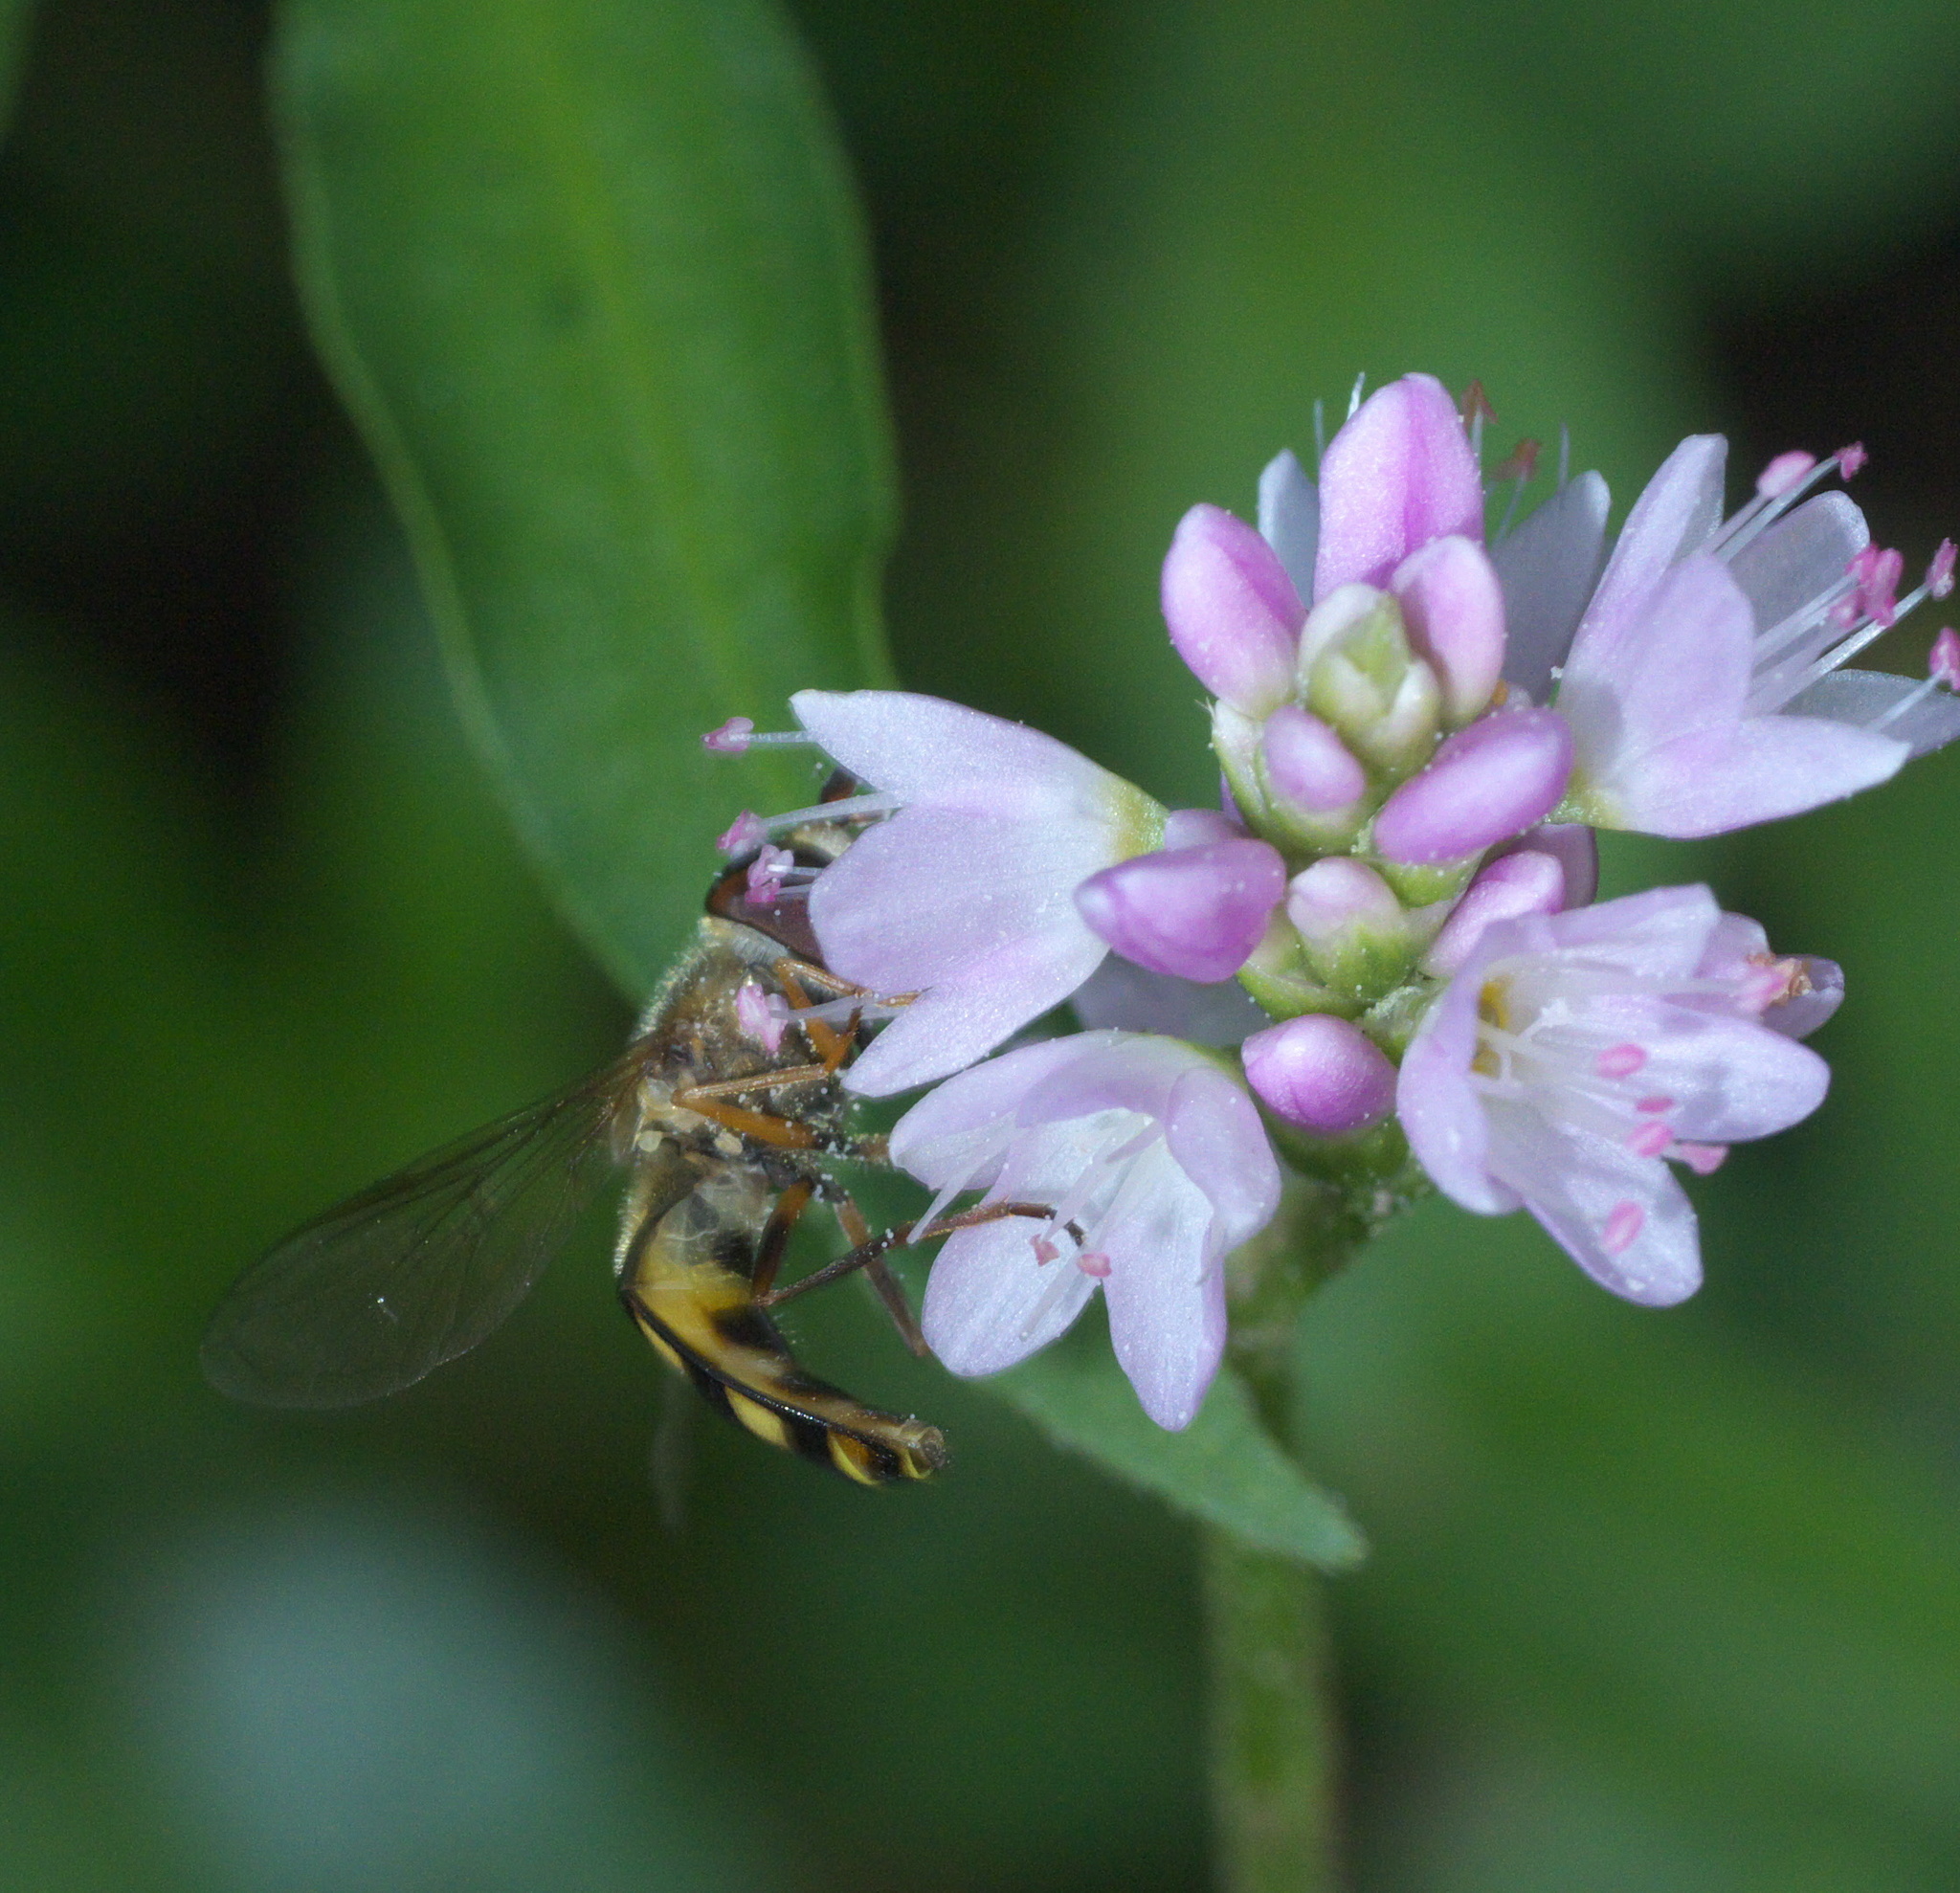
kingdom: Animalia
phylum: Arthropoda
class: Insecta
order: Diptera
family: Syrphidae
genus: Eupeodes
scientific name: Eupeodes
